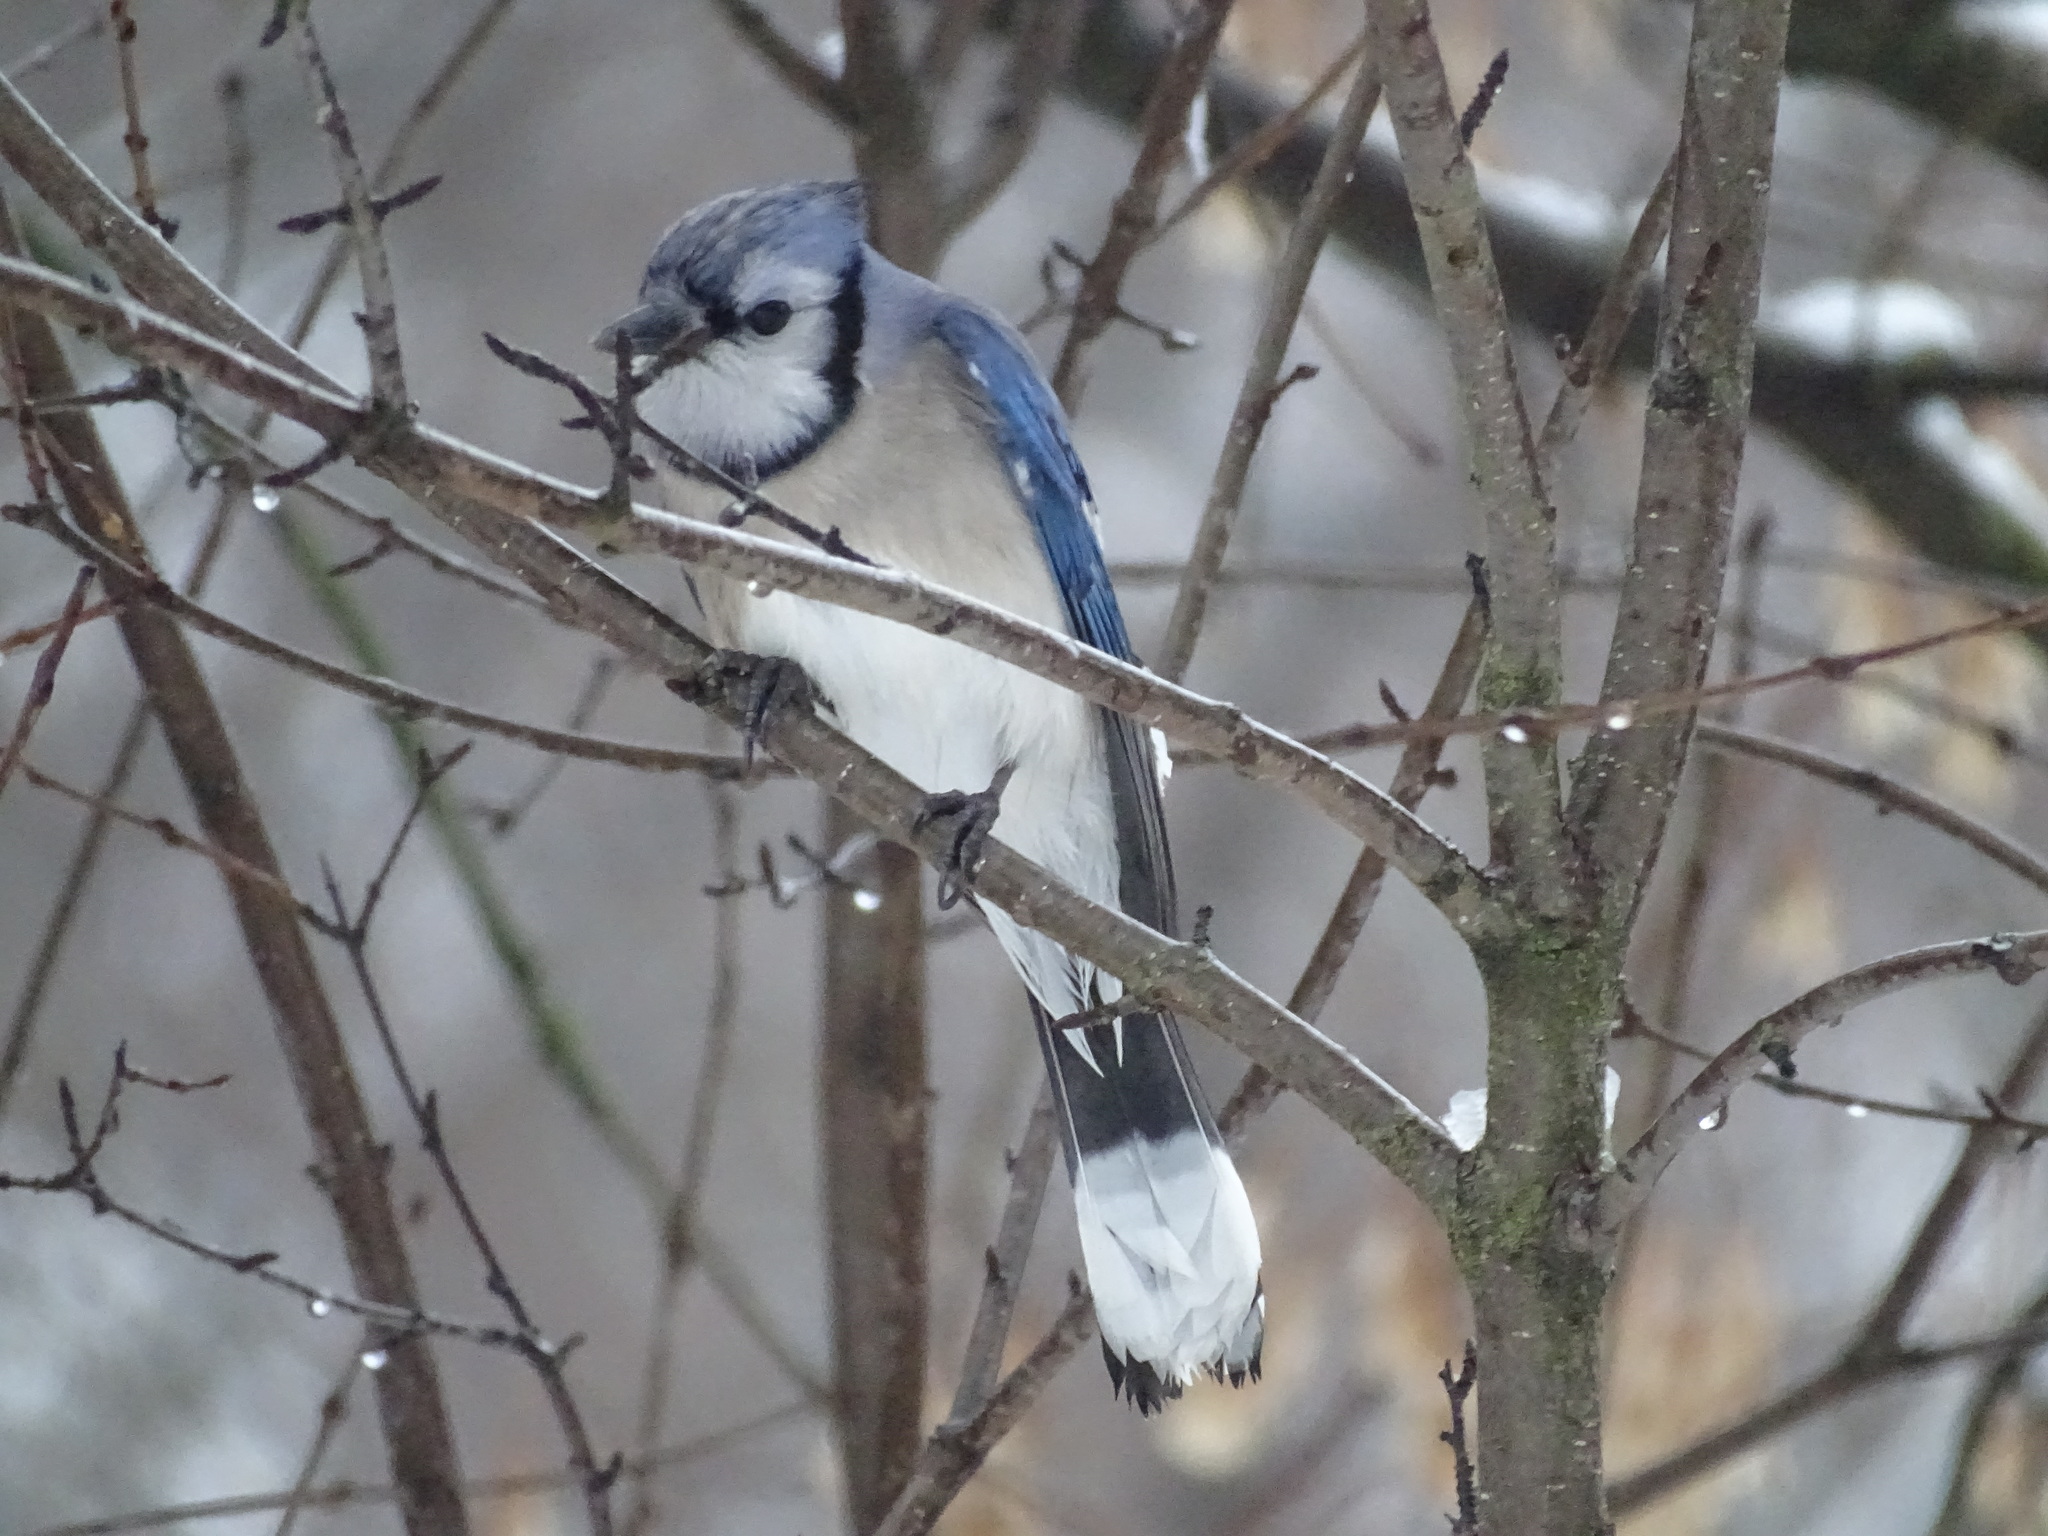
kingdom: Animalia
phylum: Chordata
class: Aves
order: Passeriformes
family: Corvidae
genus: Cyanocitta
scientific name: Cyanocitta cristata
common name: Blue jay
